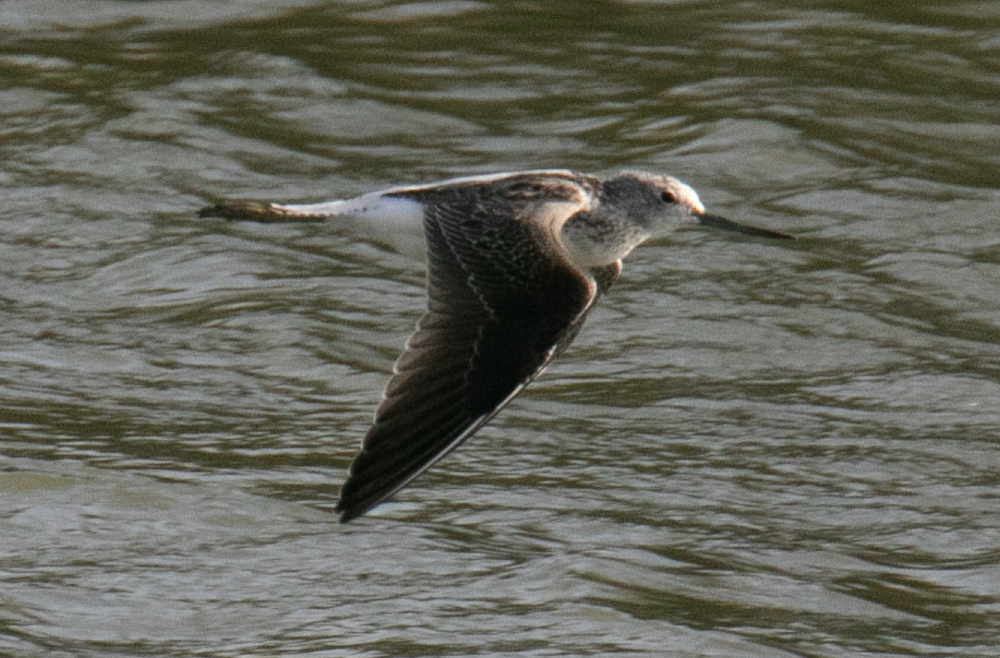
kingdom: Animalia
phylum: Chordata
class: Aves
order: Charadriiformes
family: Scolopacidae
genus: Tringa
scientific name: Tringa nebularia
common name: Common greenshank
